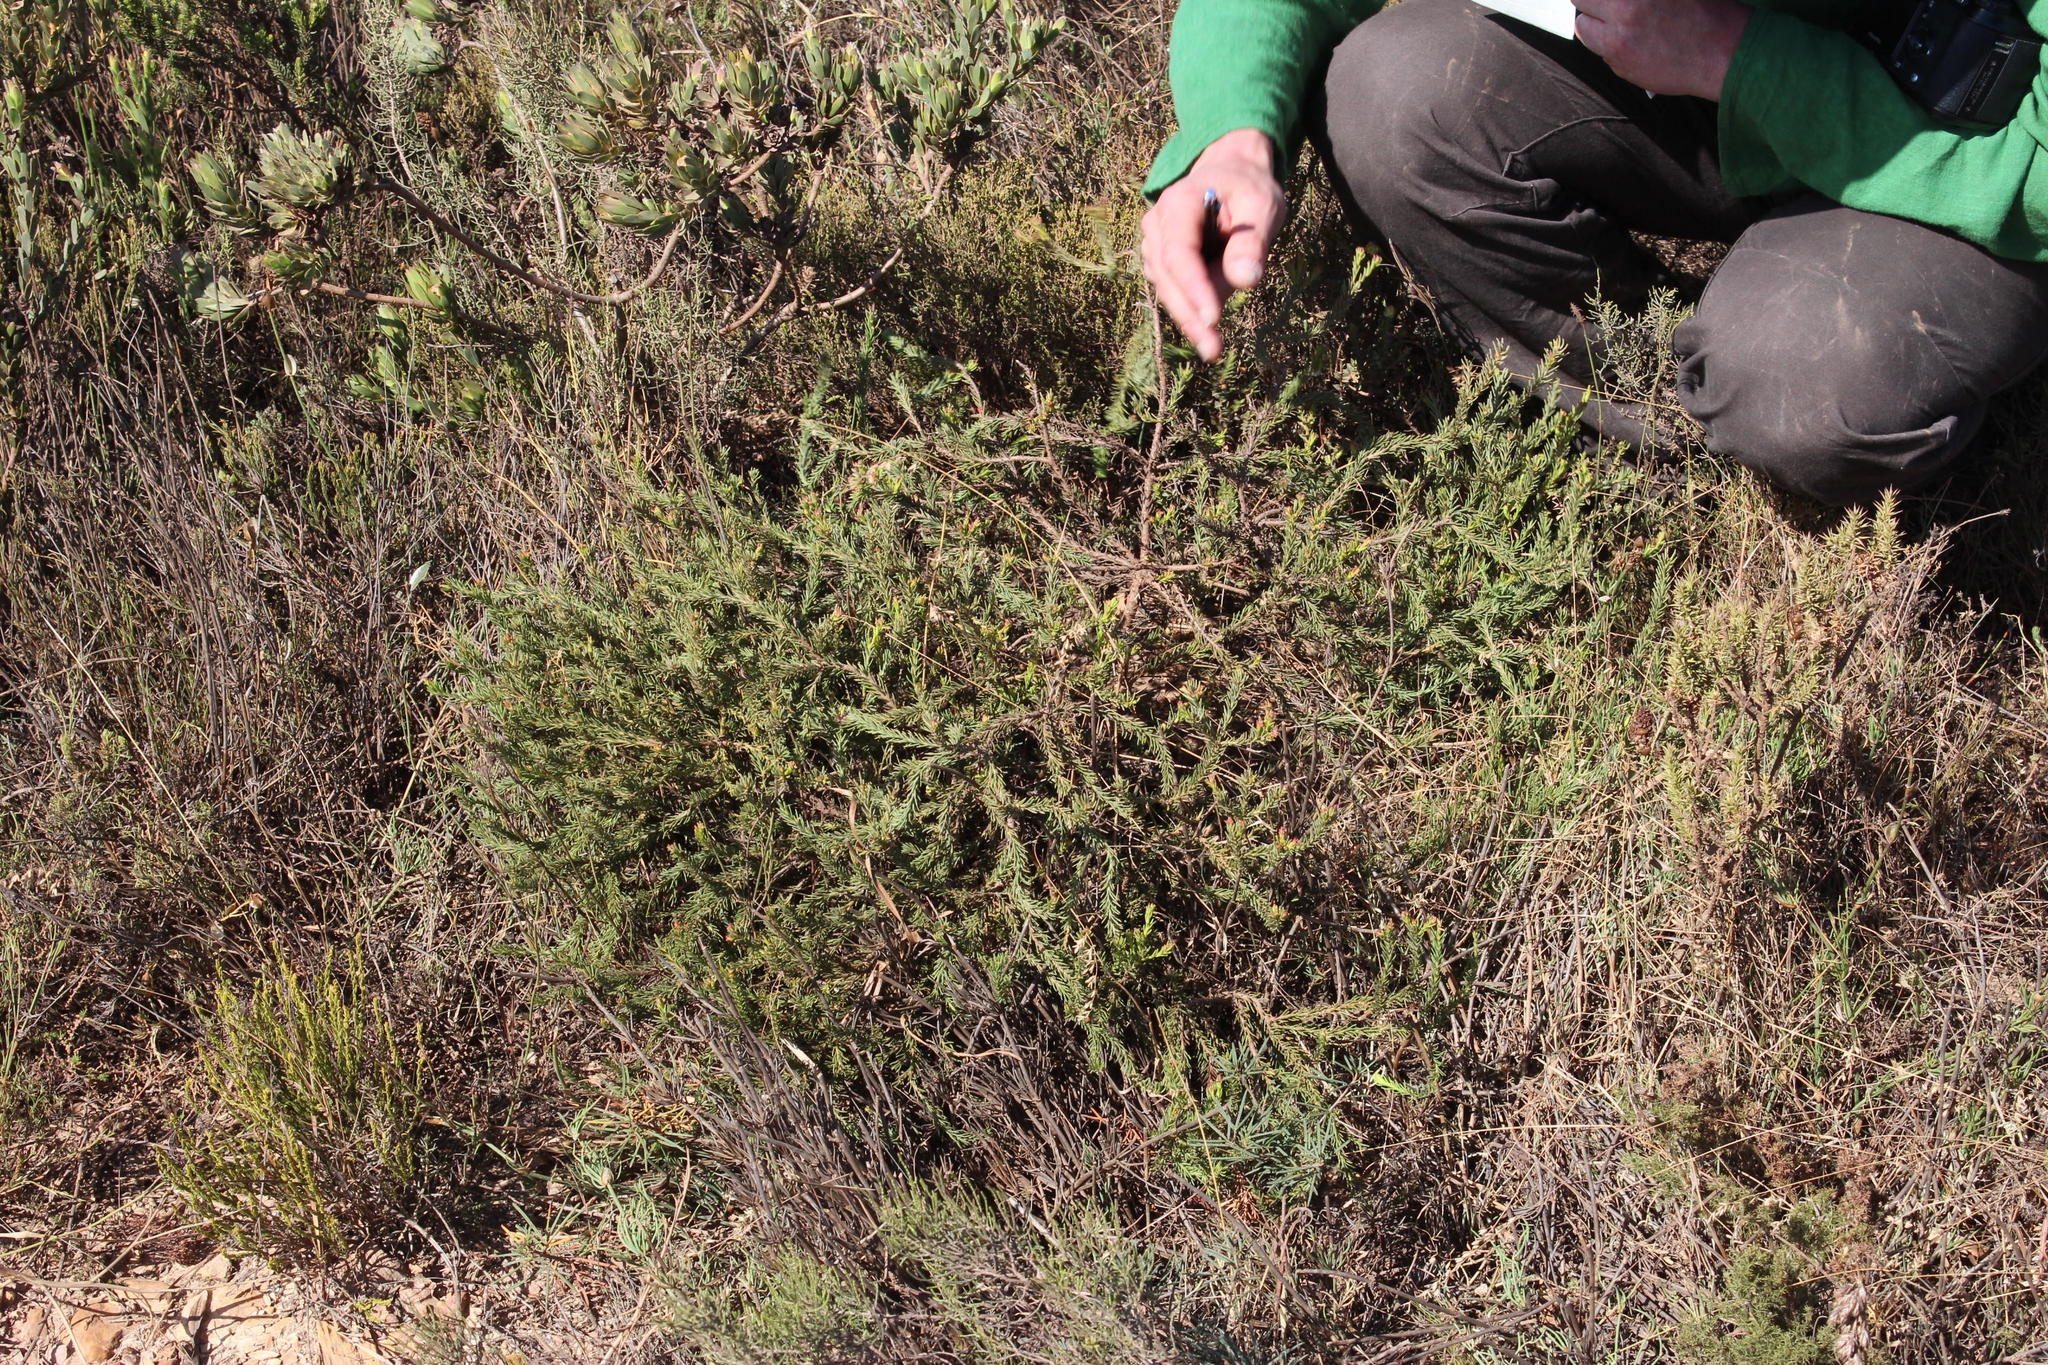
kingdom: Plantae
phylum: Tracheophyta
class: Magnoliopsida
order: Proteales
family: Proteaceae
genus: Protea
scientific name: Protea subulifolia
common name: Awl-leaf sugarbush
